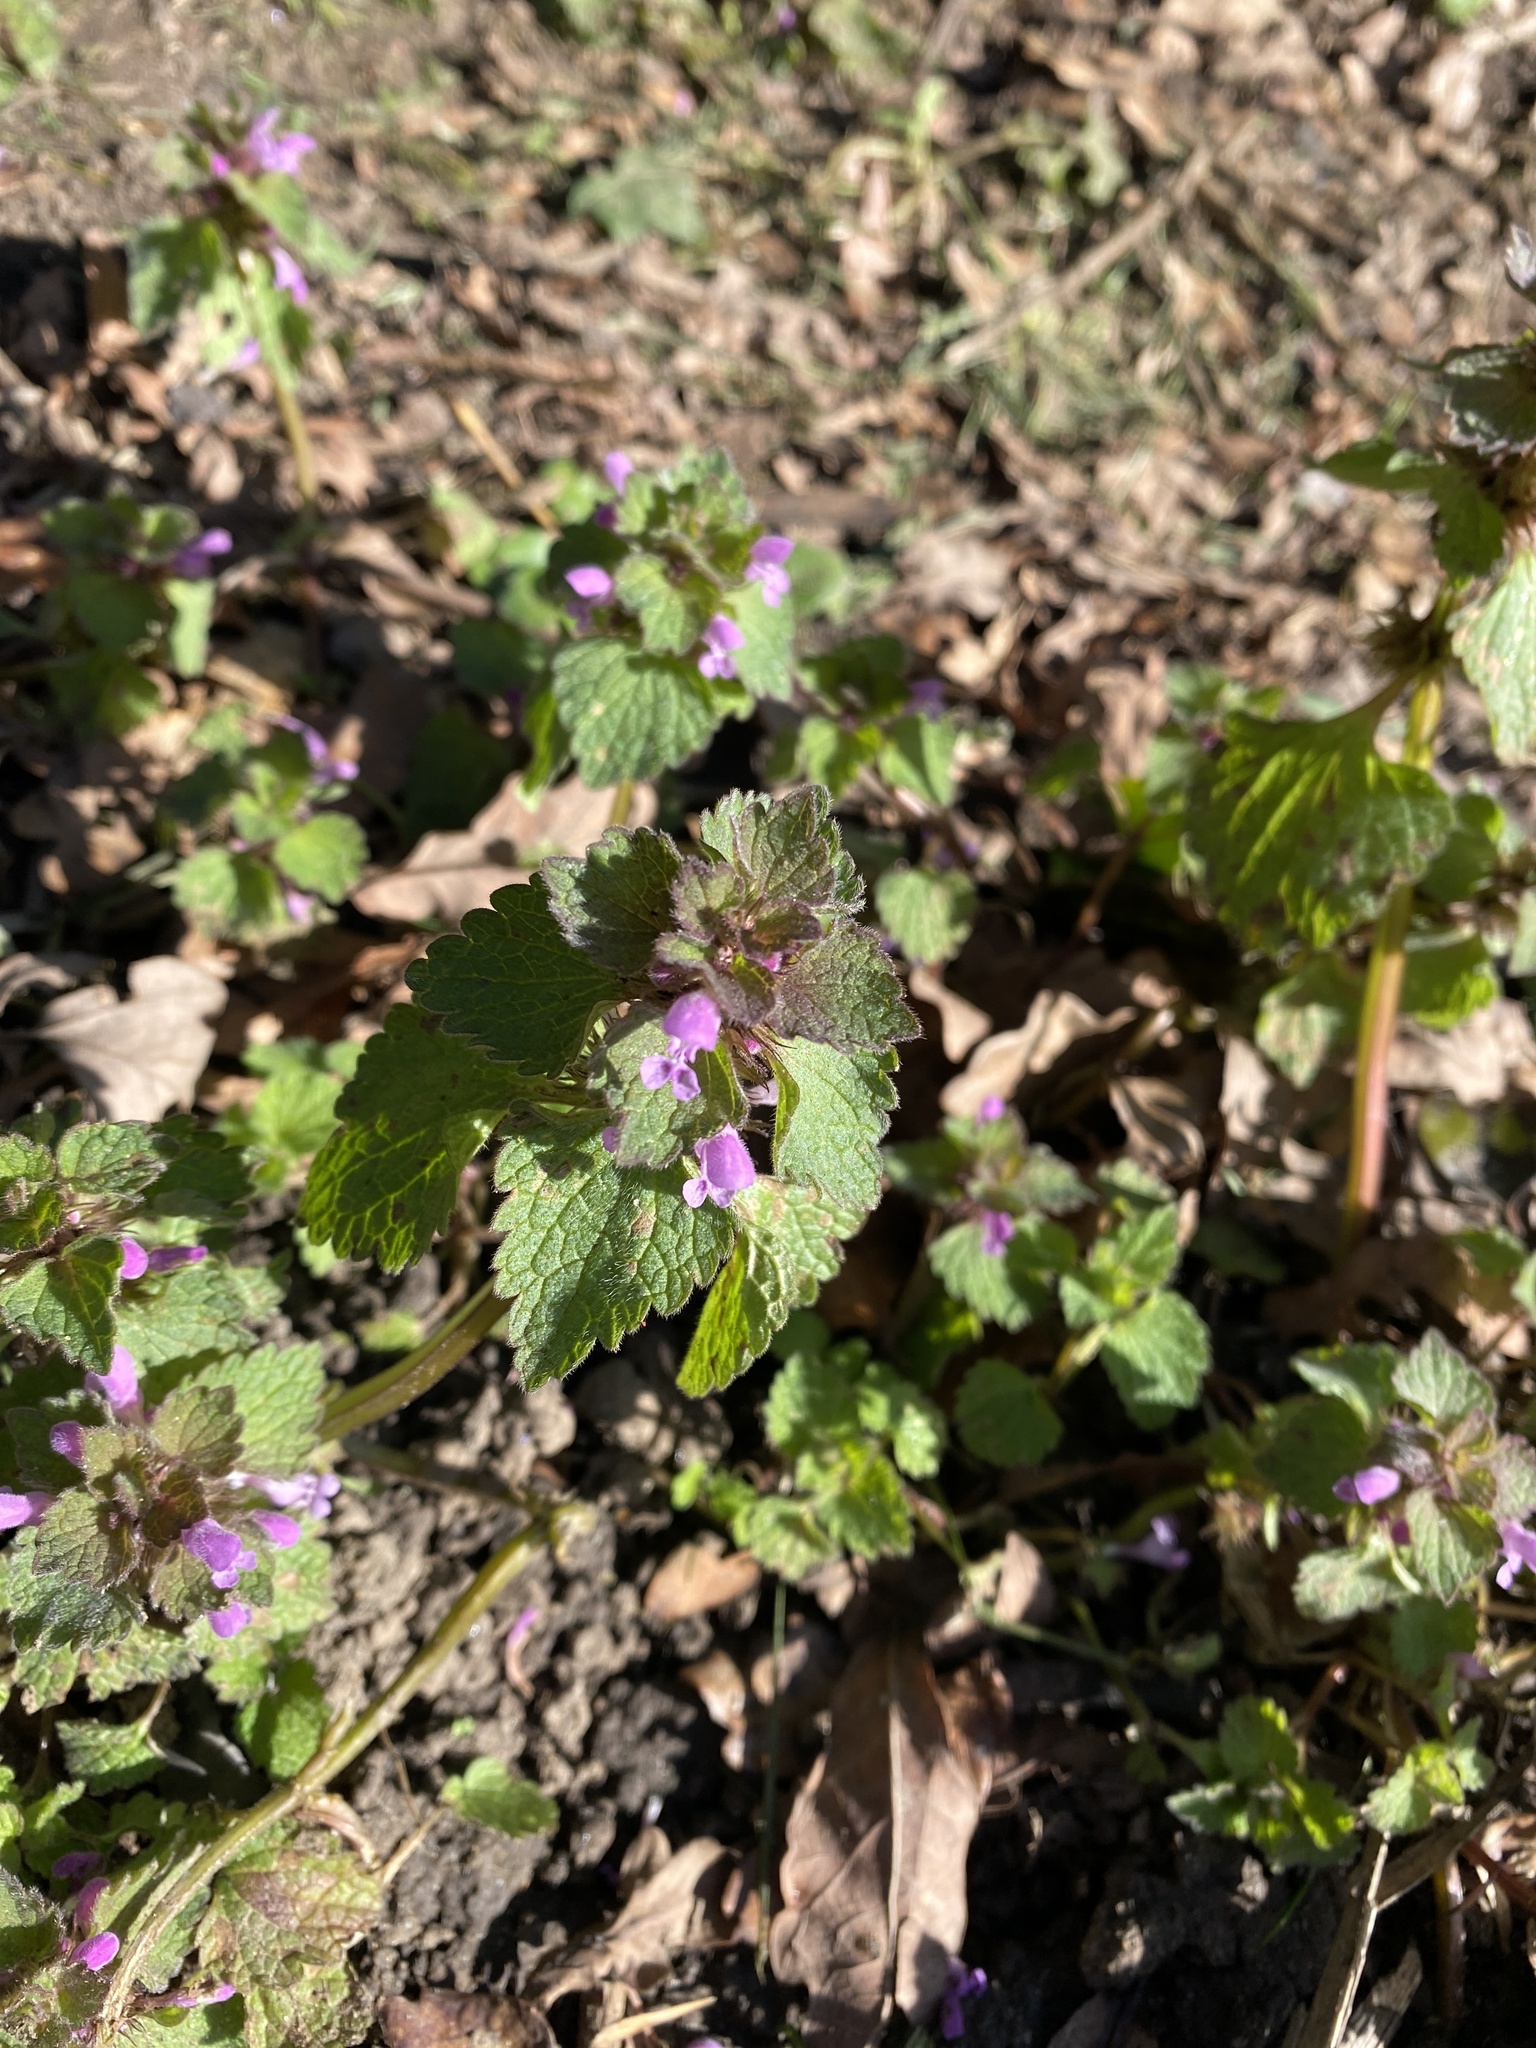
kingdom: Plantae
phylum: Tracheophyta
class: Magnoliopsida
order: Lamiales
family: Lamiaceae
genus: Lamium
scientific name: Lamium purpureum
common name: Red dead-nettle
